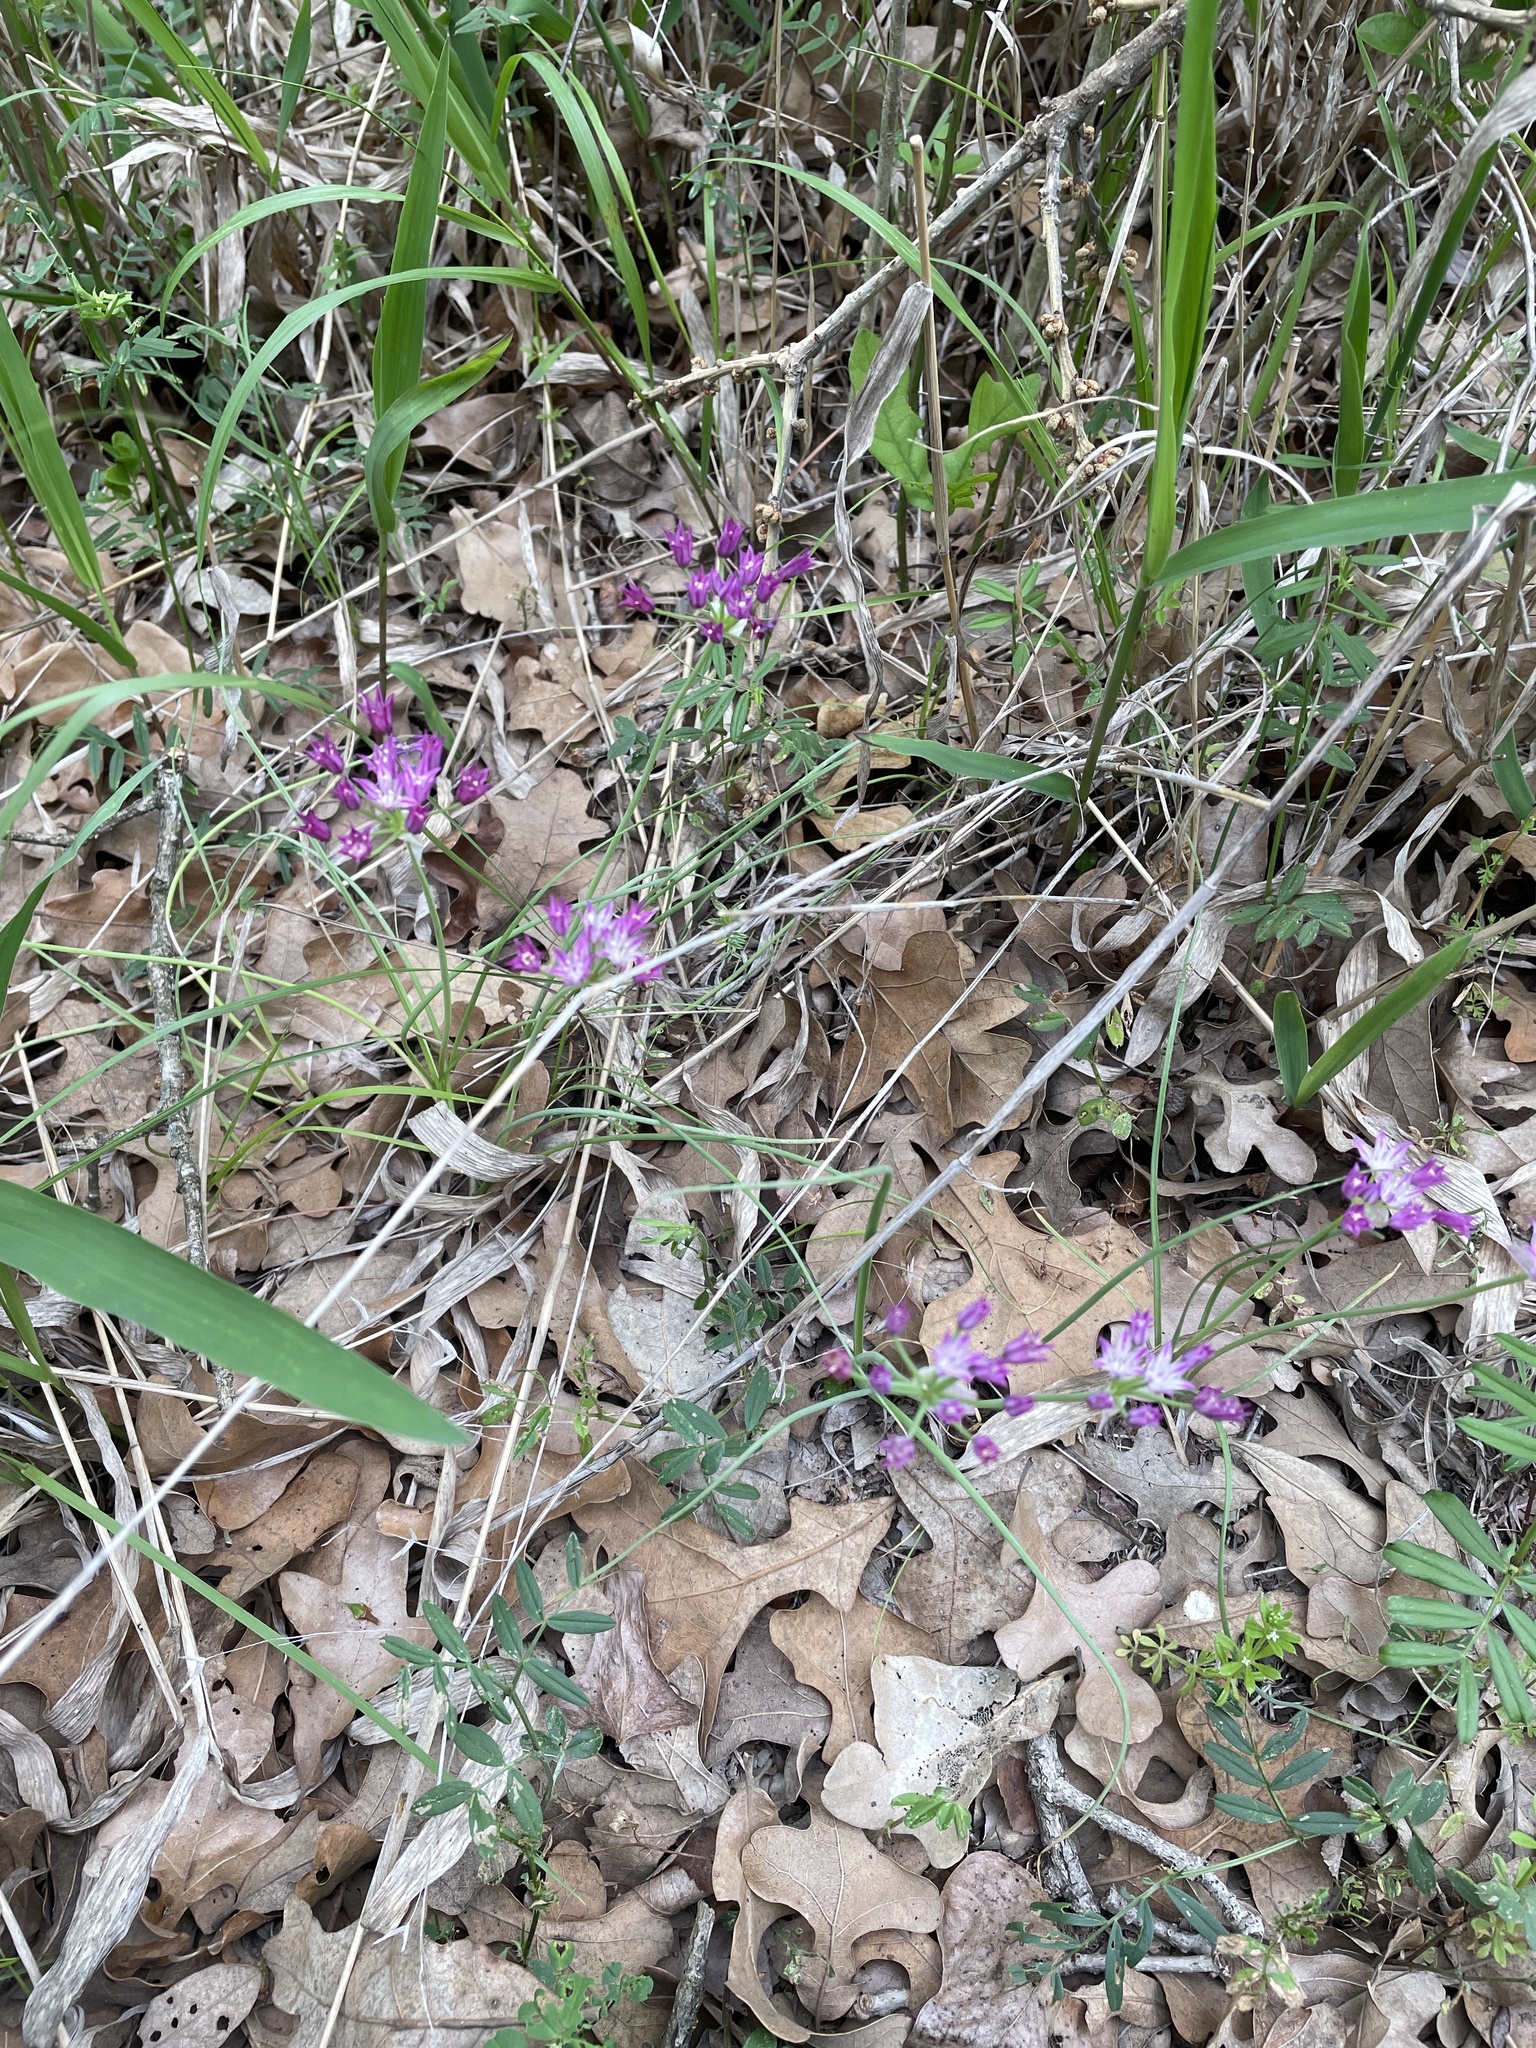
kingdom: Plantae
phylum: Tracheophyta
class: Liliopsida
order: Asparagales
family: Amaryllidaceae
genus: Allium
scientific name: Allium drummondii
